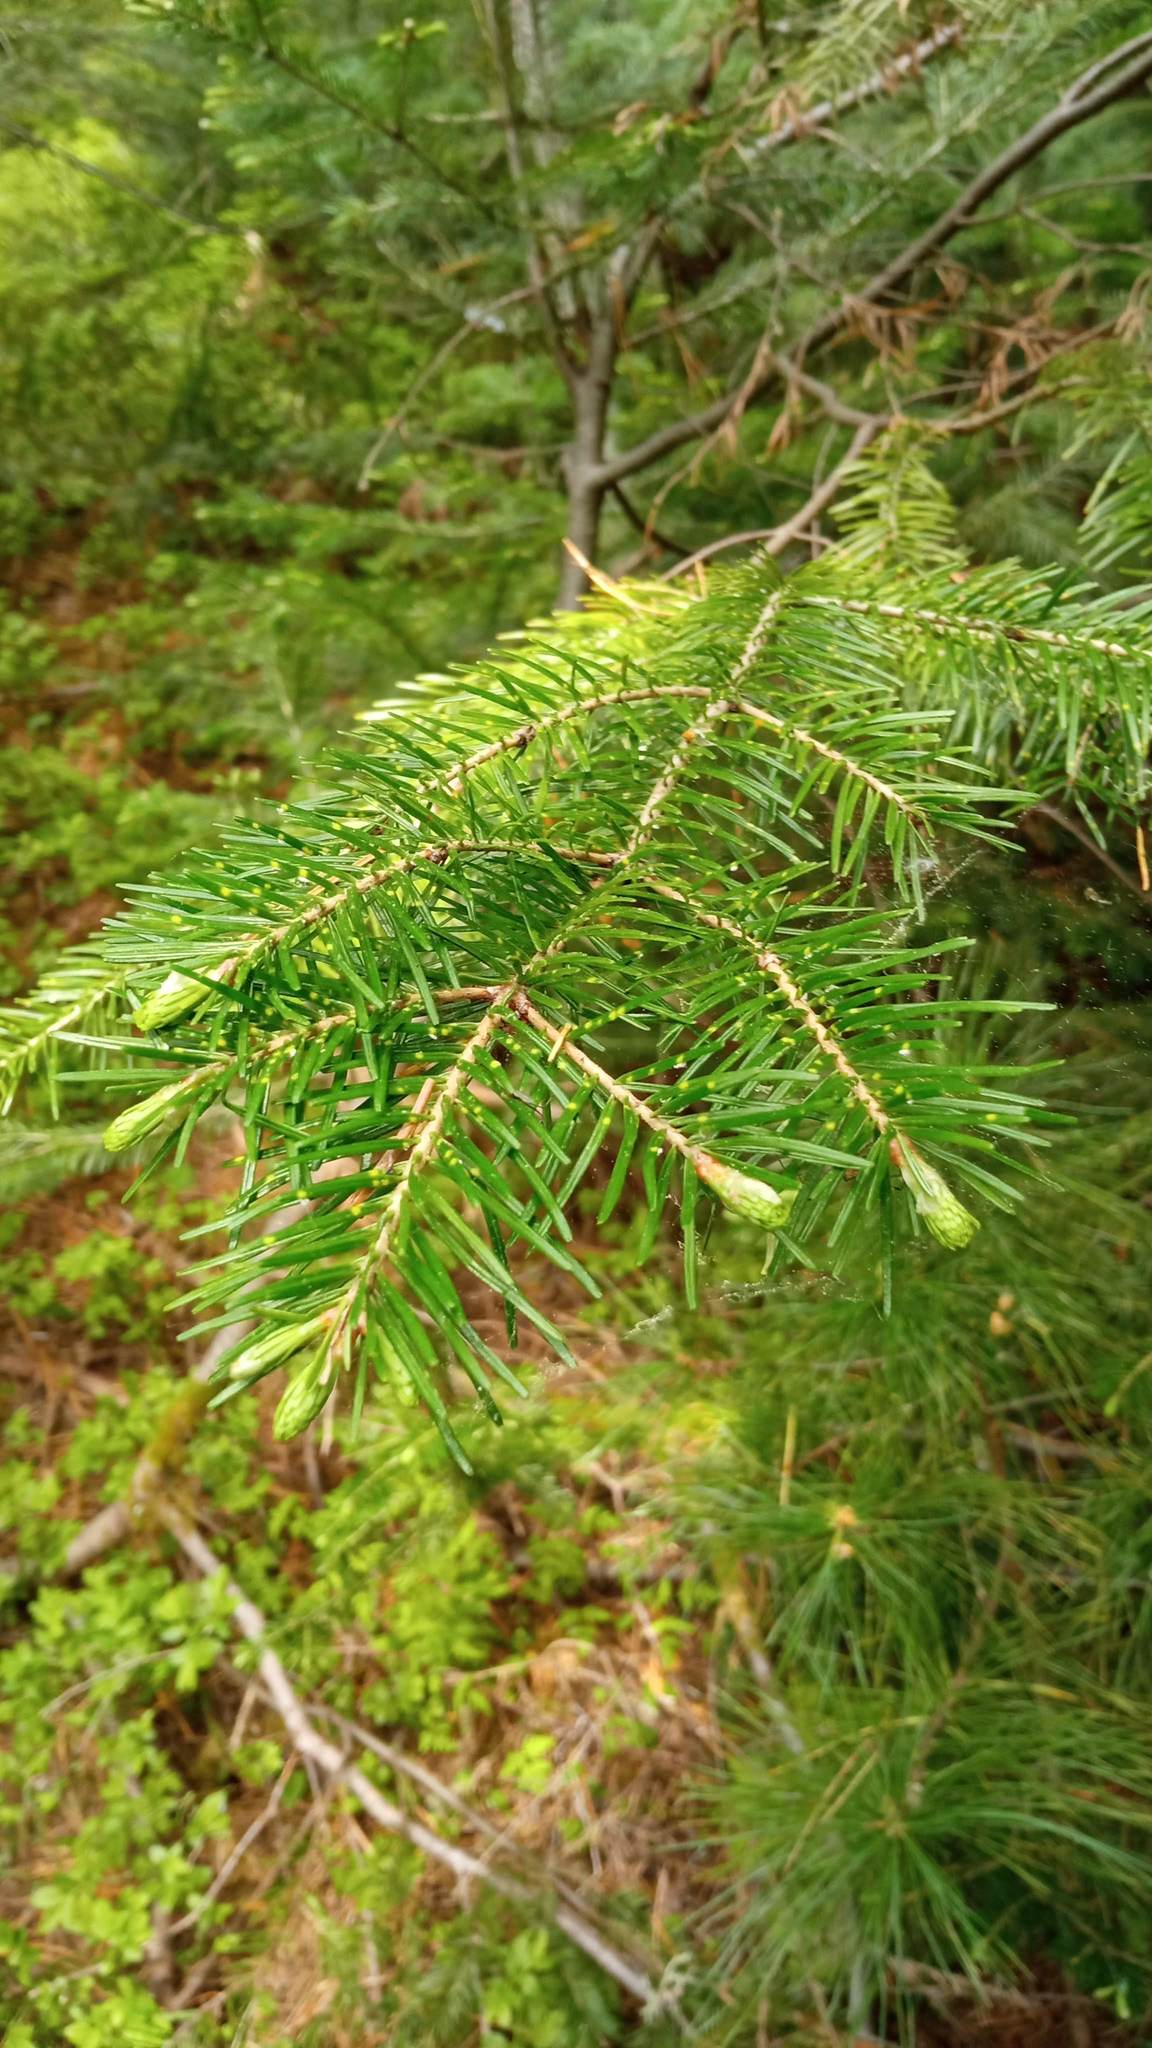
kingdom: Plantae
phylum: Tracheophyta
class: Pinopsida
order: Pinales
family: Pinaceae
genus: Abies
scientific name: Abies sibirica
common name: Siberian fir
